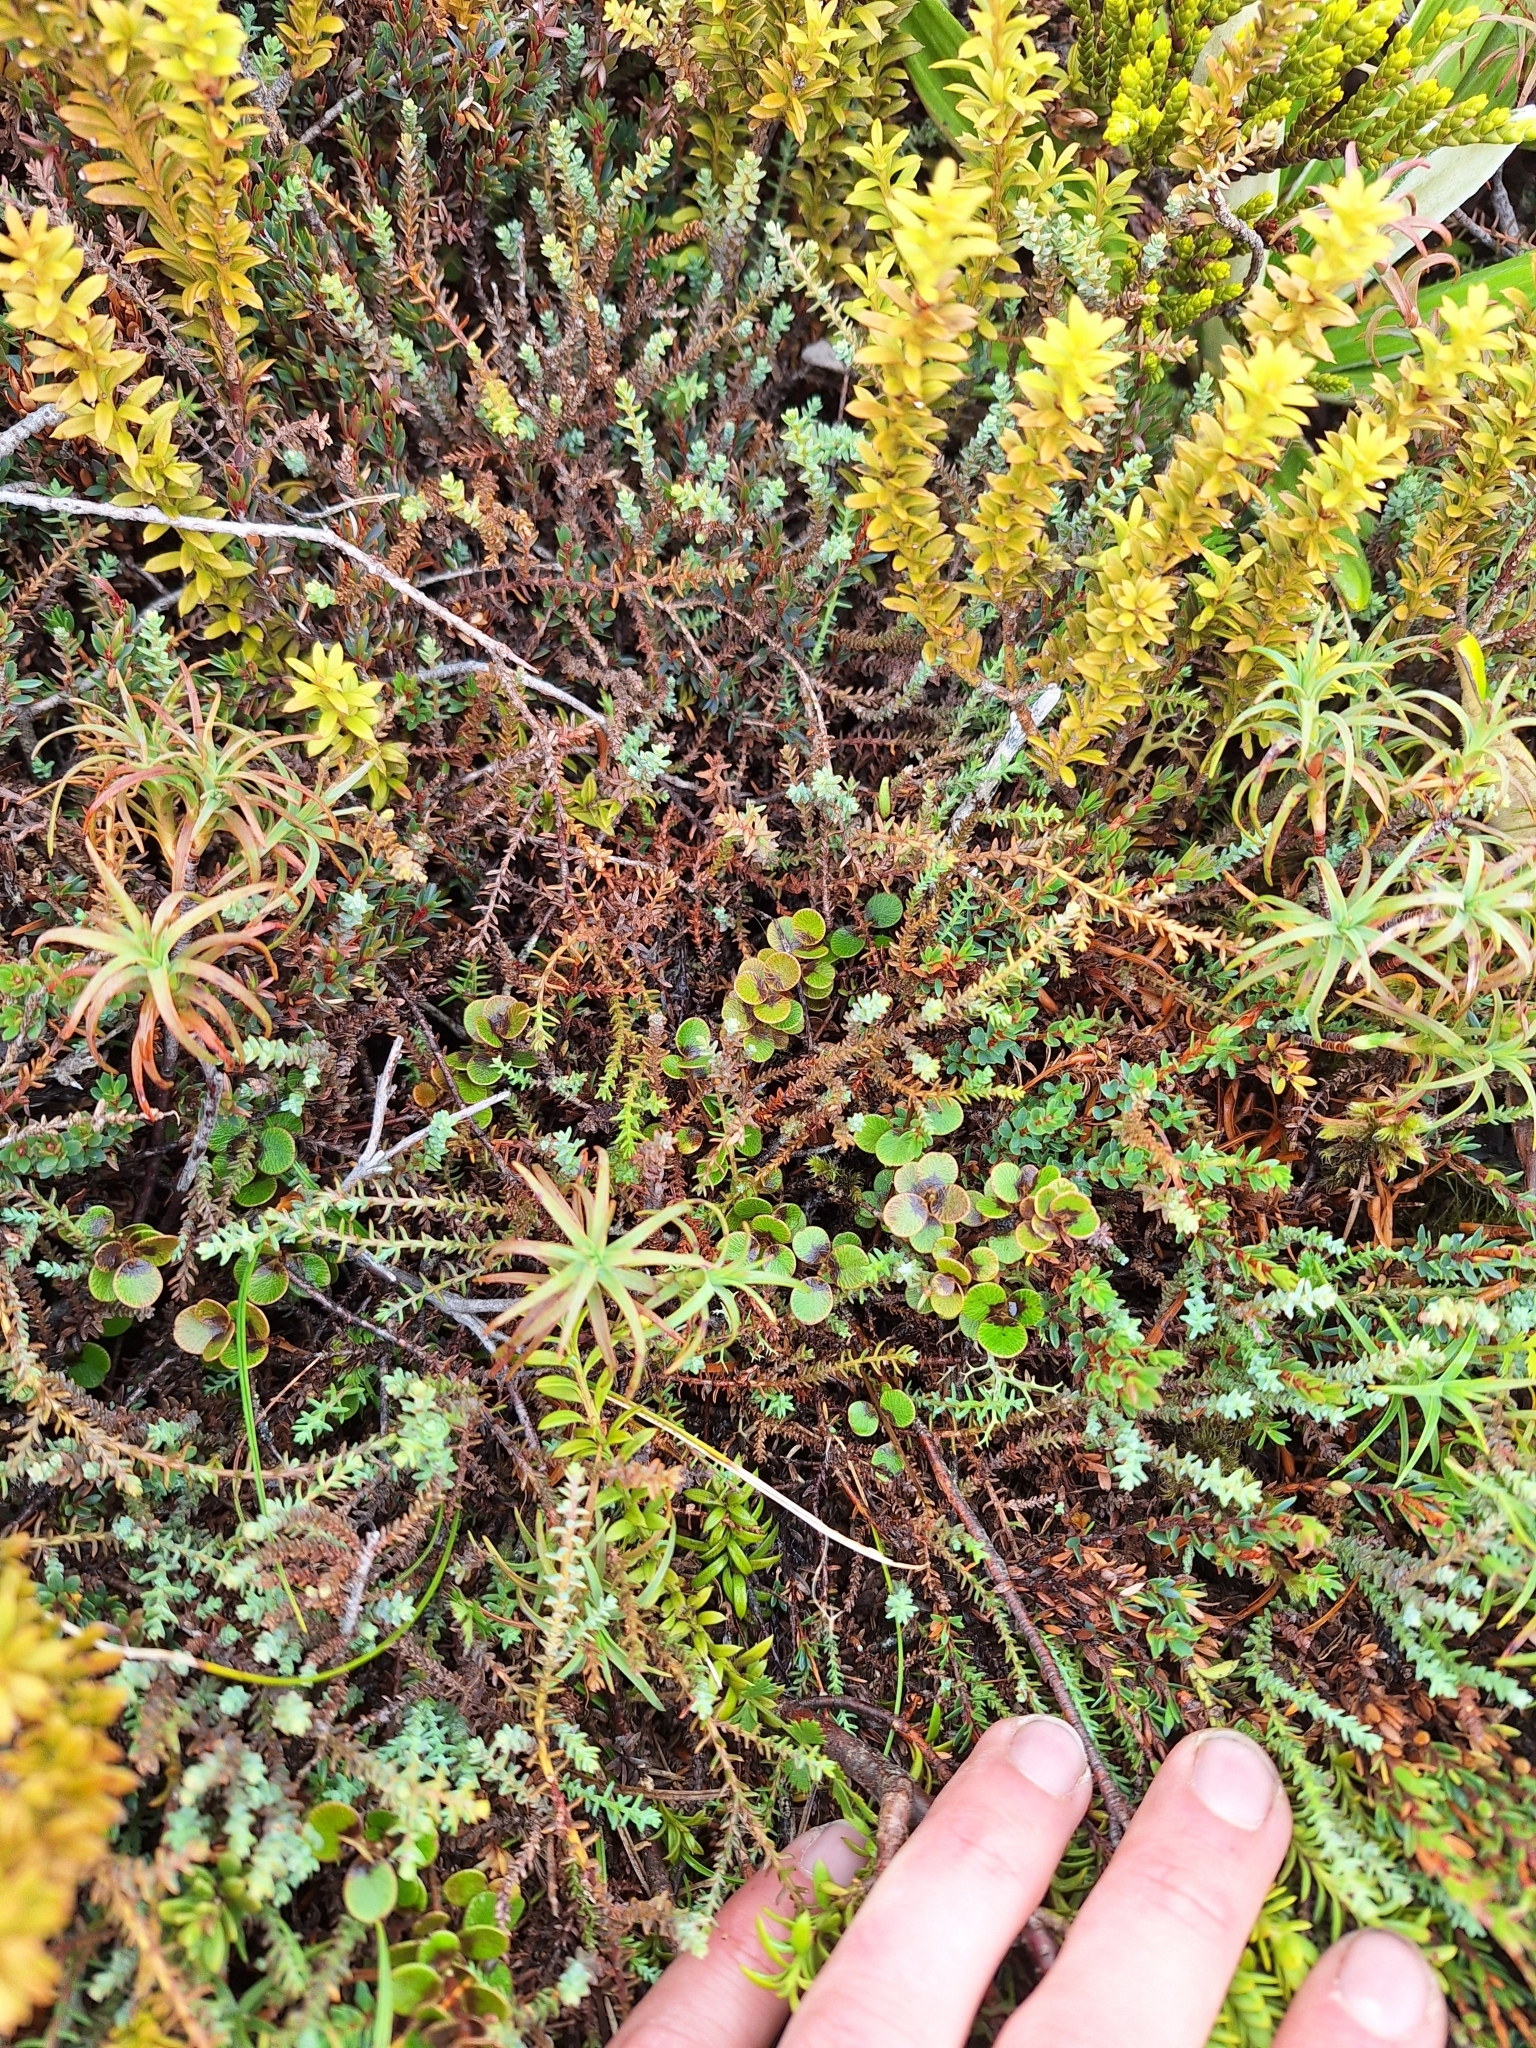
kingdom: Plantae
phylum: Tracheophyta
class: Magnoliopsida
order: Ericales
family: Primulaceae
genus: Myrsine
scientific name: Myrsine nummularia
